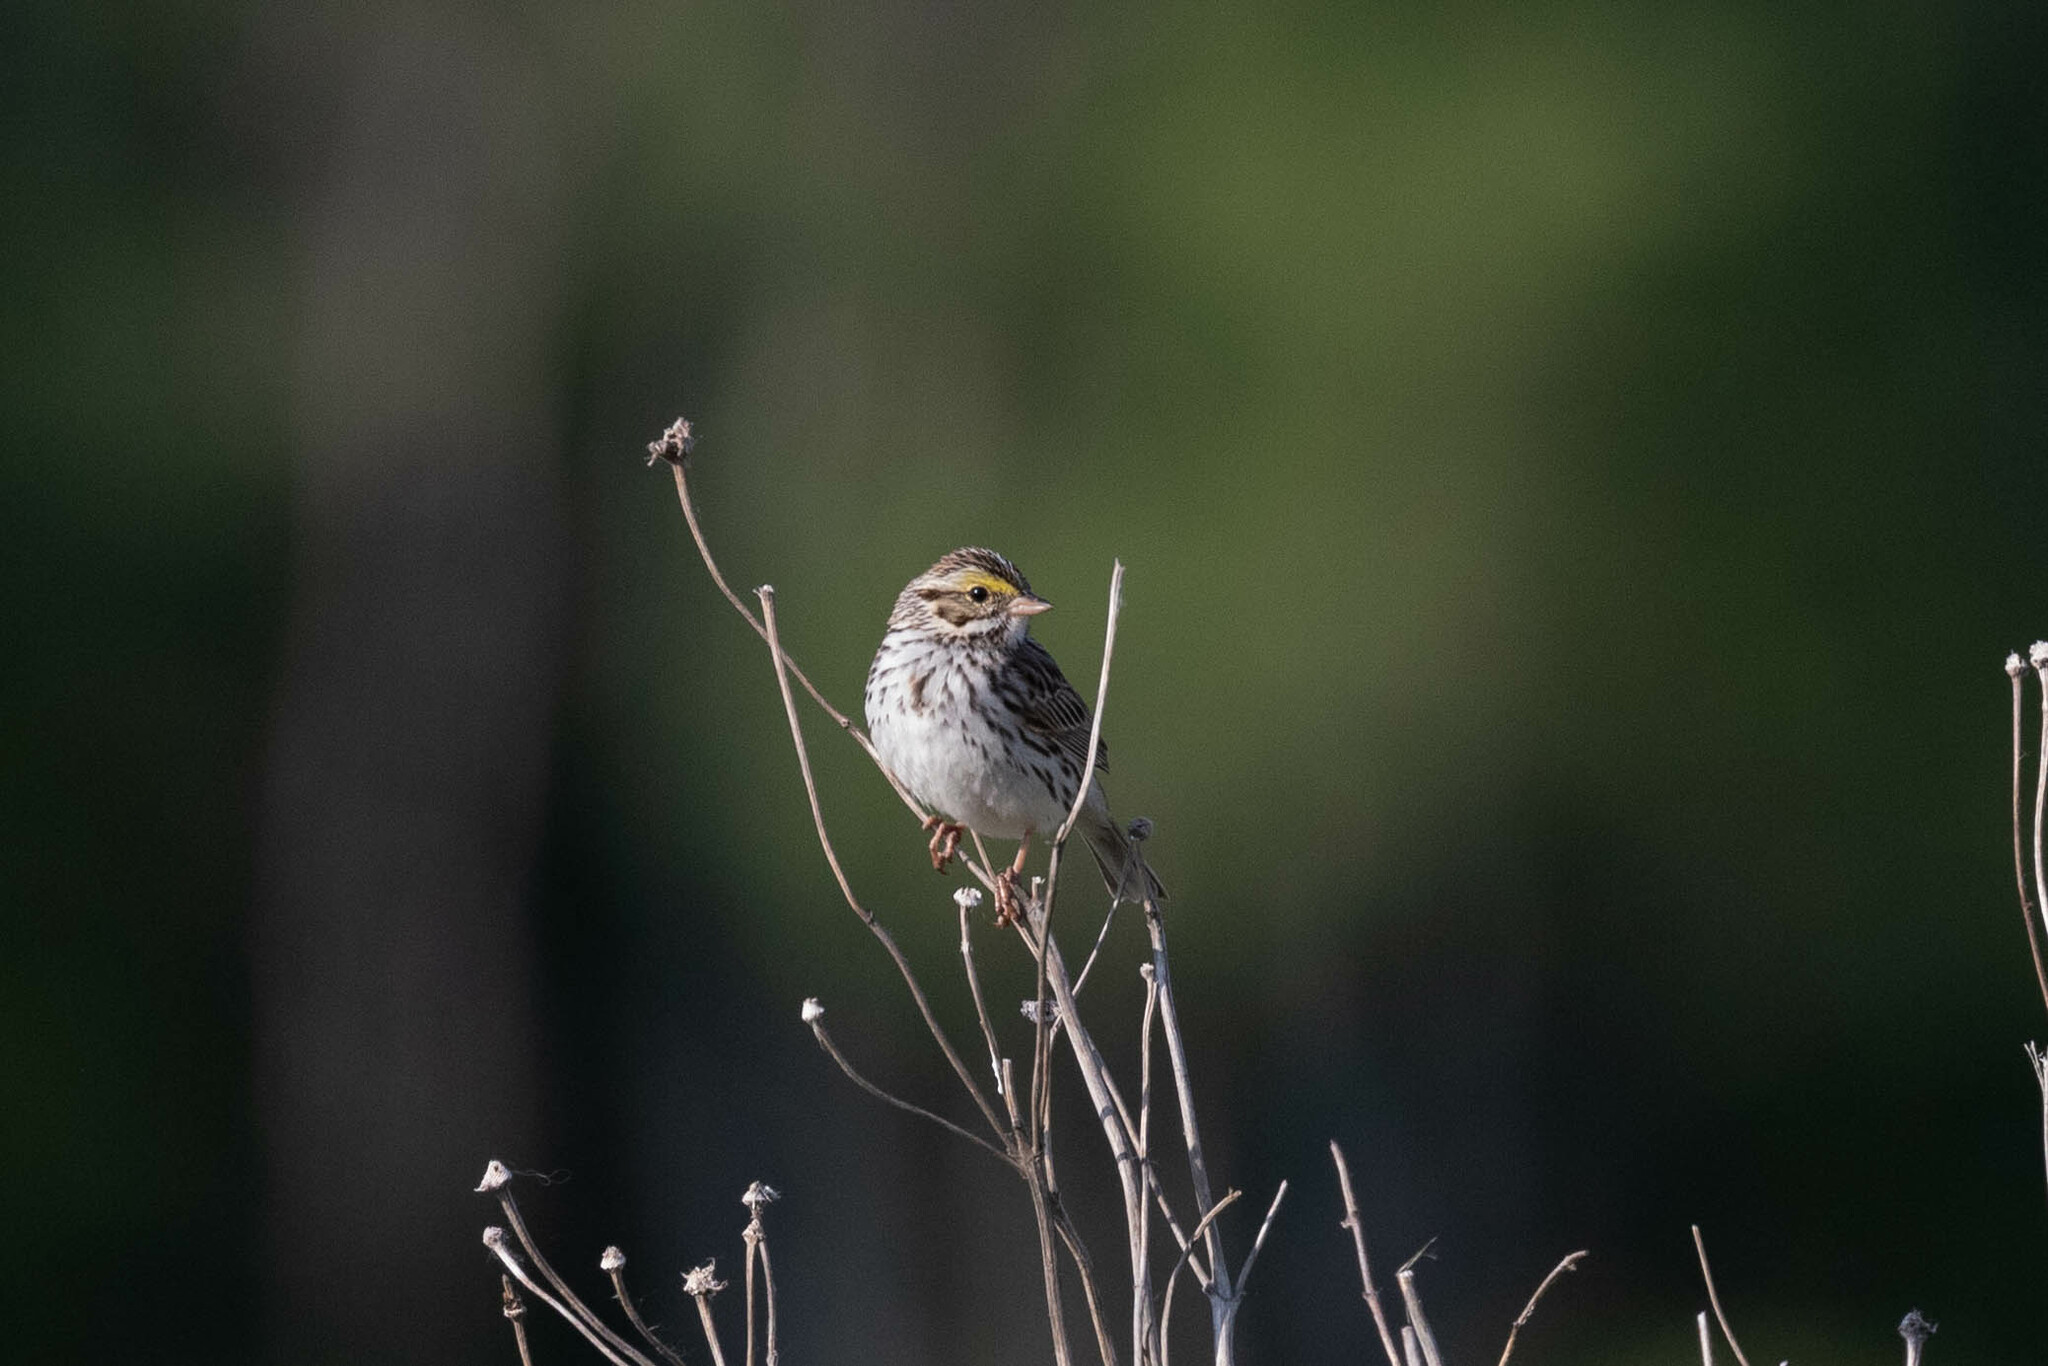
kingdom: Animalia
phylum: Chordata
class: Aves
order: Passeriformes
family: Passerellidae
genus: Passerculus
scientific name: Passerculus sandwichensis
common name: Savannah sparrow
